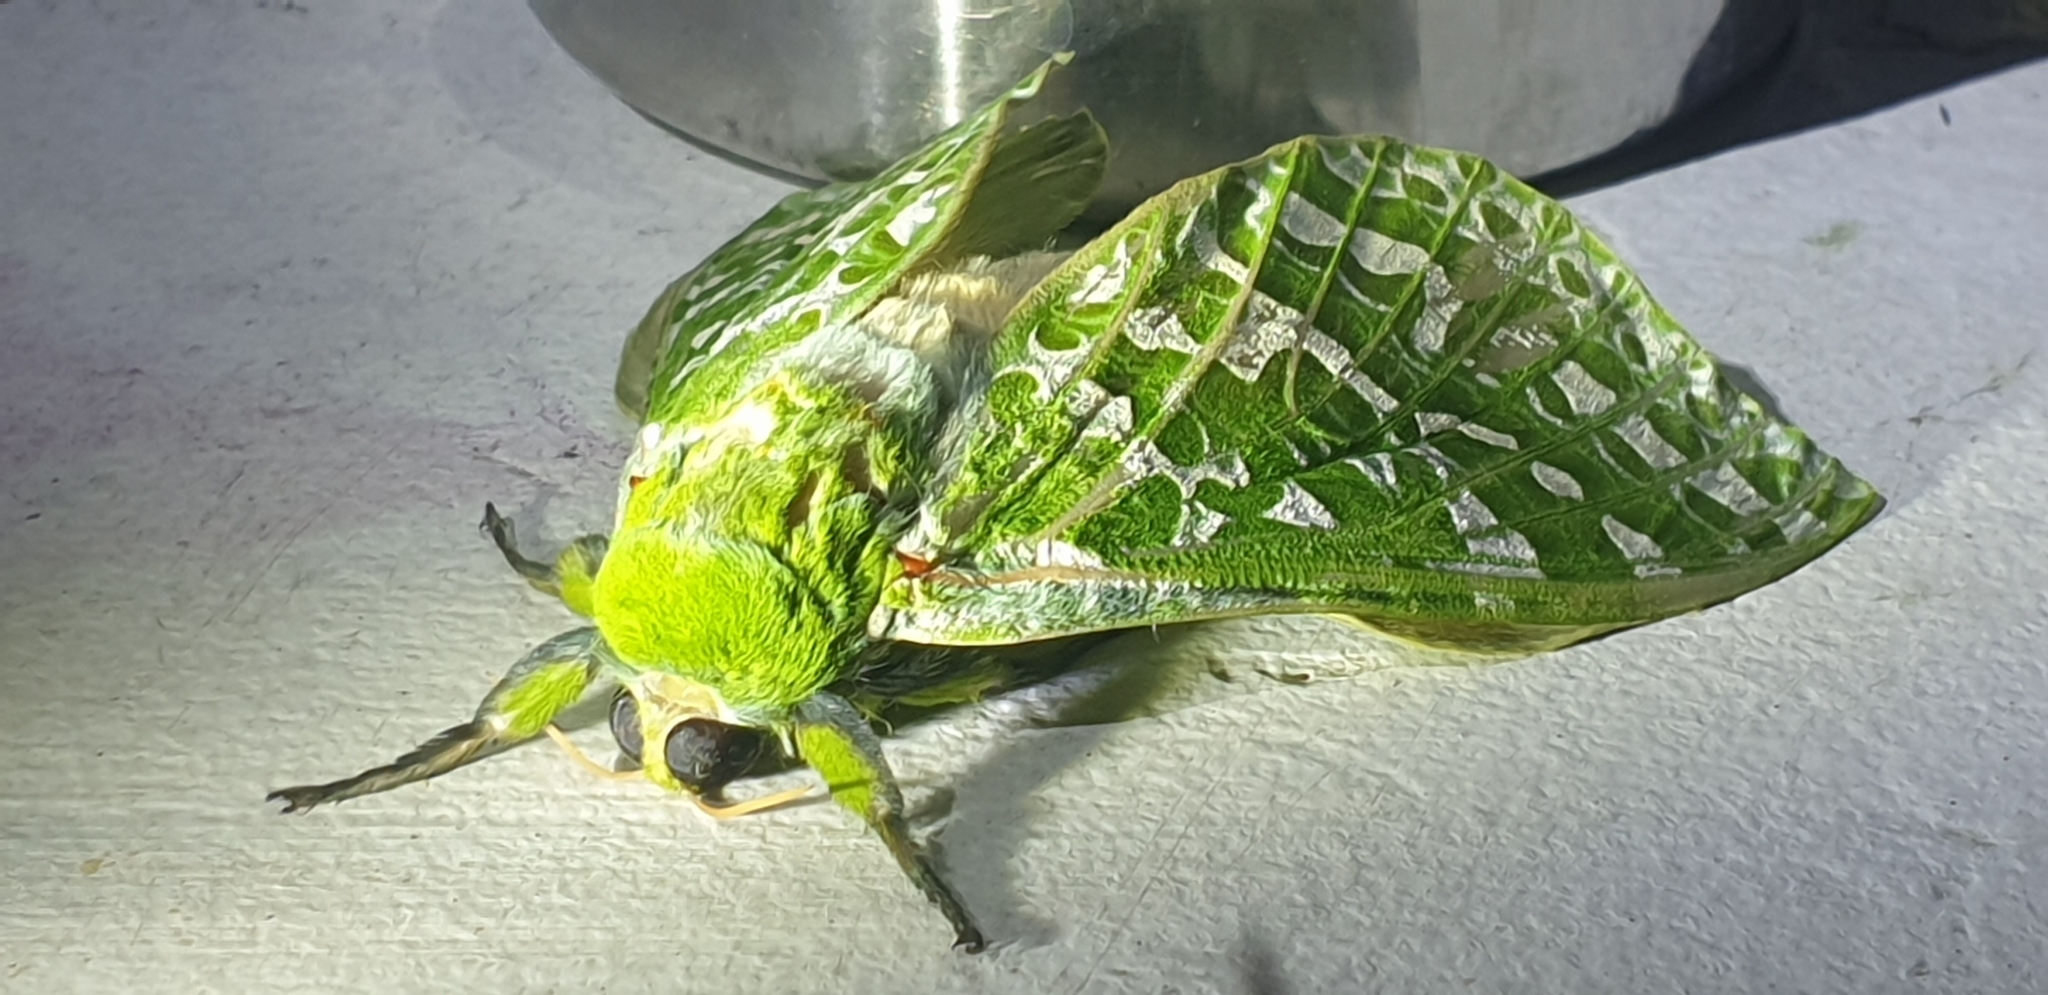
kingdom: Animalia
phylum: Arthropoda
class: Insecta
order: Lepidoptera
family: Hepialidae
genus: Aenetus
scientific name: Aenetus virescens
